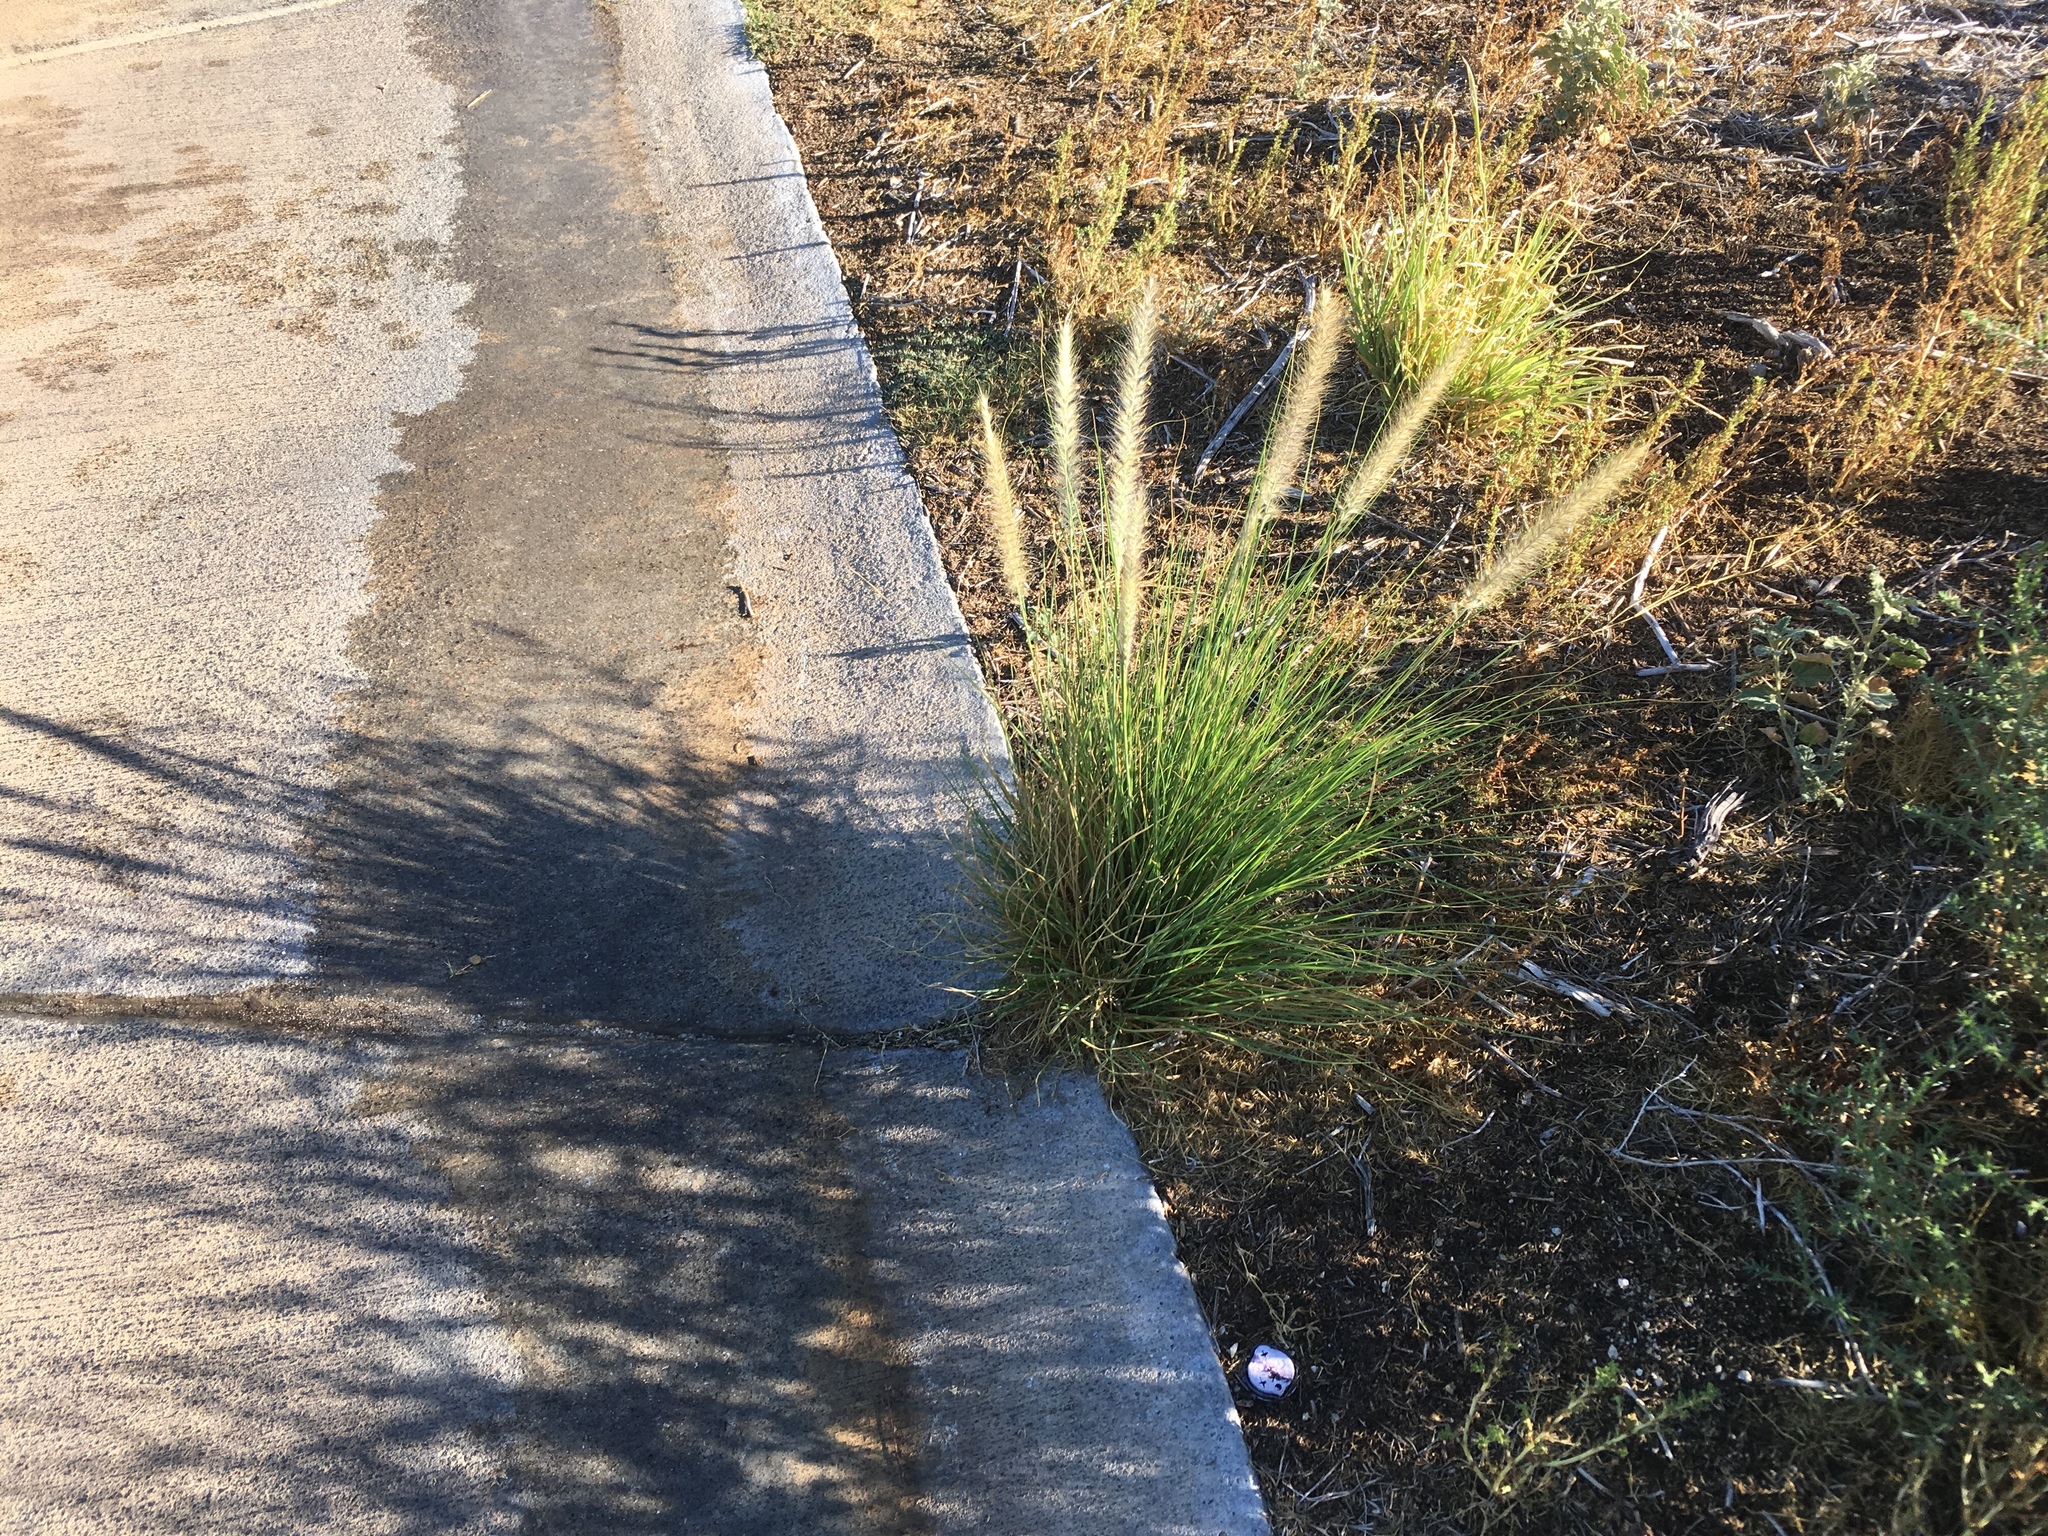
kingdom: Plantae
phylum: Tracheophyta
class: Liliopsida
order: Poales
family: Poaceae
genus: Cenchrus
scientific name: Cenchrus setaceus
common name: Crimson fountaingrass
